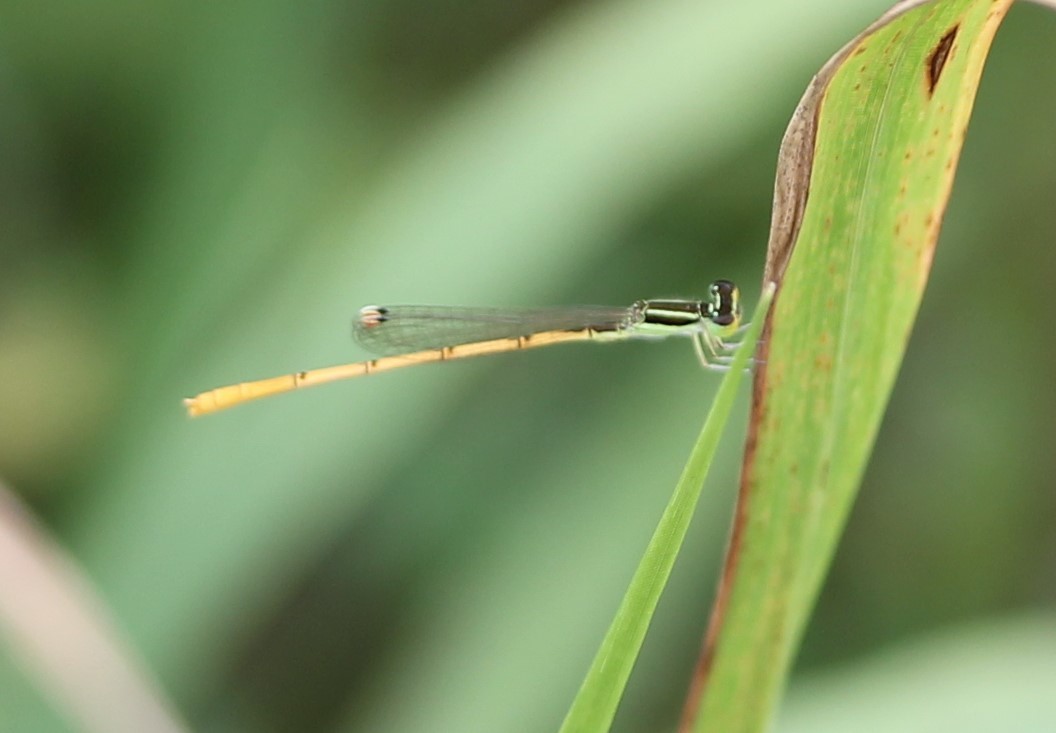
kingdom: Animalia
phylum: Arthropoda
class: Insecta
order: Odonata
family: Coenagrionidae
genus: Ischnura
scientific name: Ischnura hastata
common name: Citrine forktail
